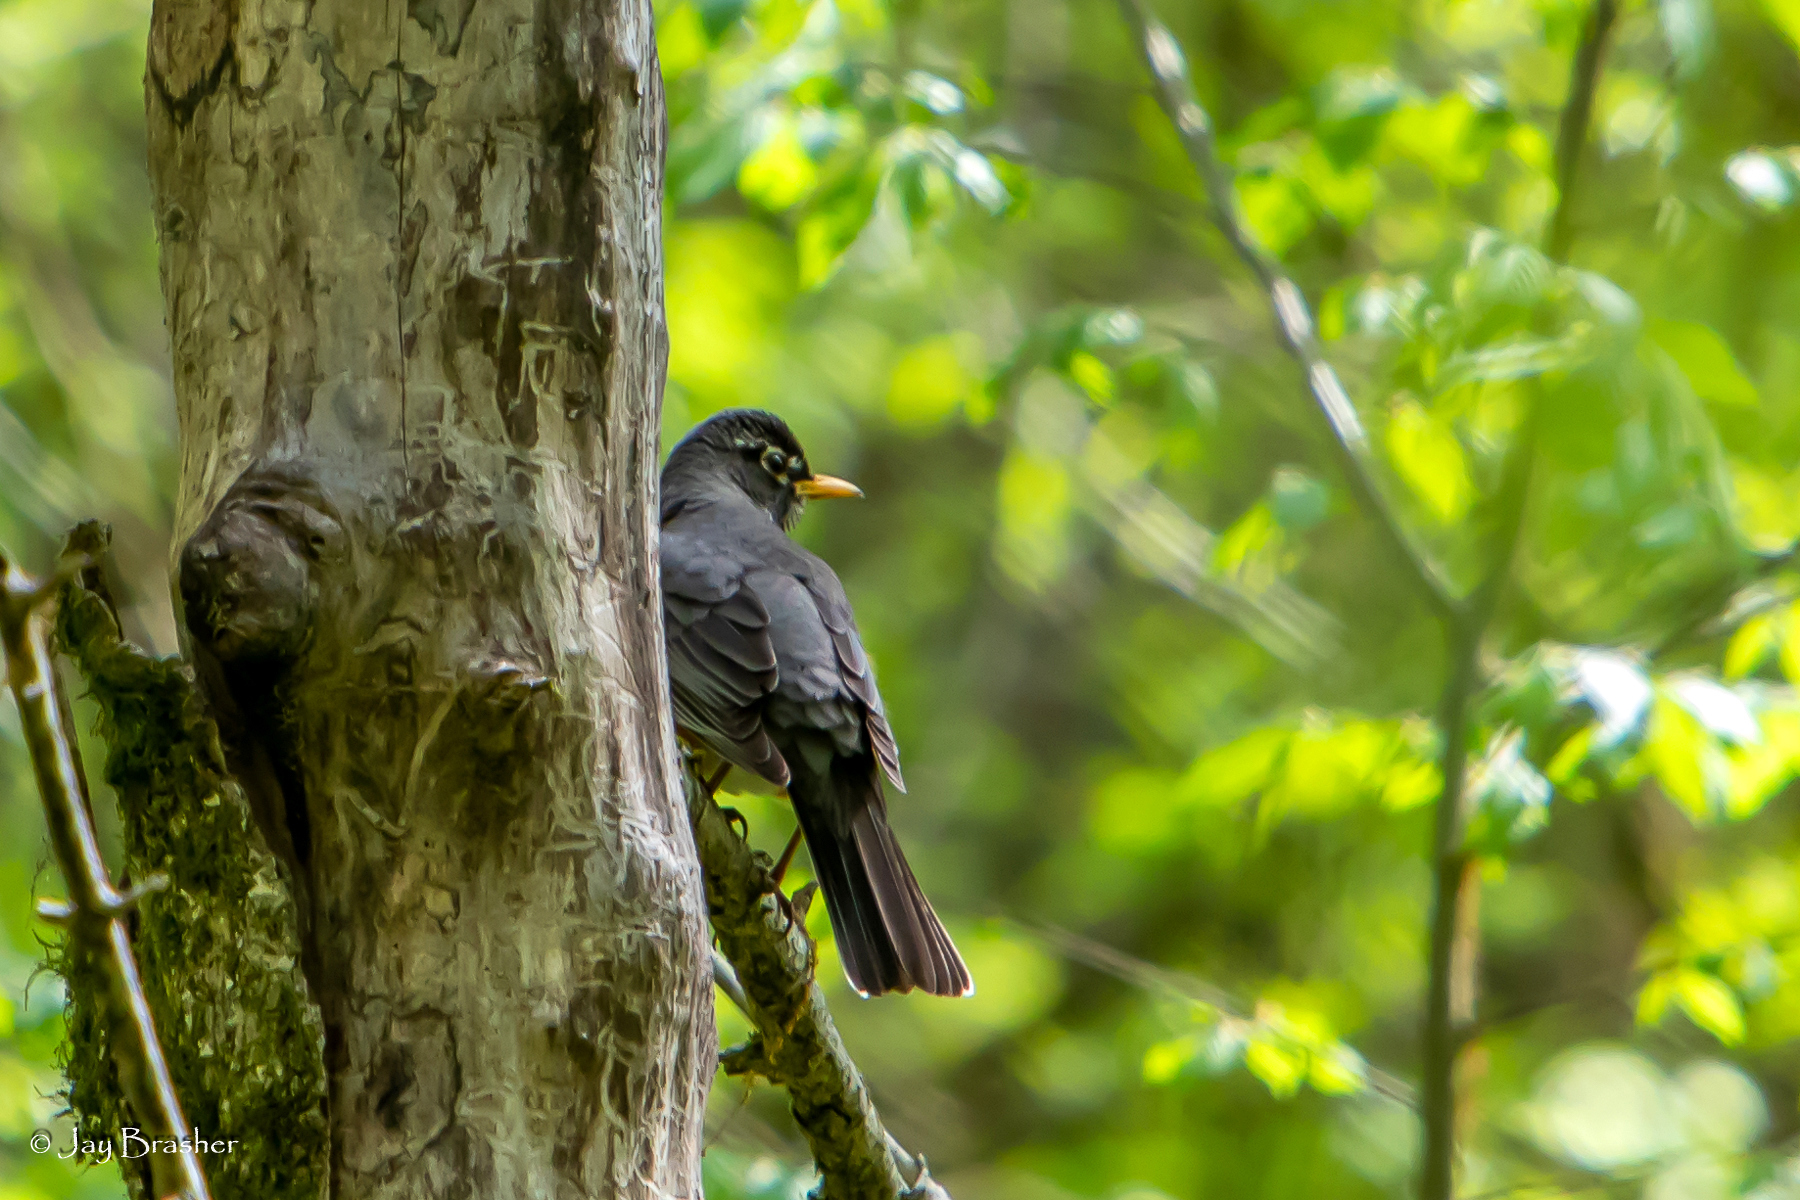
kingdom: Animalia
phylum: Chordata
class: Aves
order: Passeriformes
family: Turdidae
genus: Turdus
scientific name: Turdus migratorius
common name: American robin
